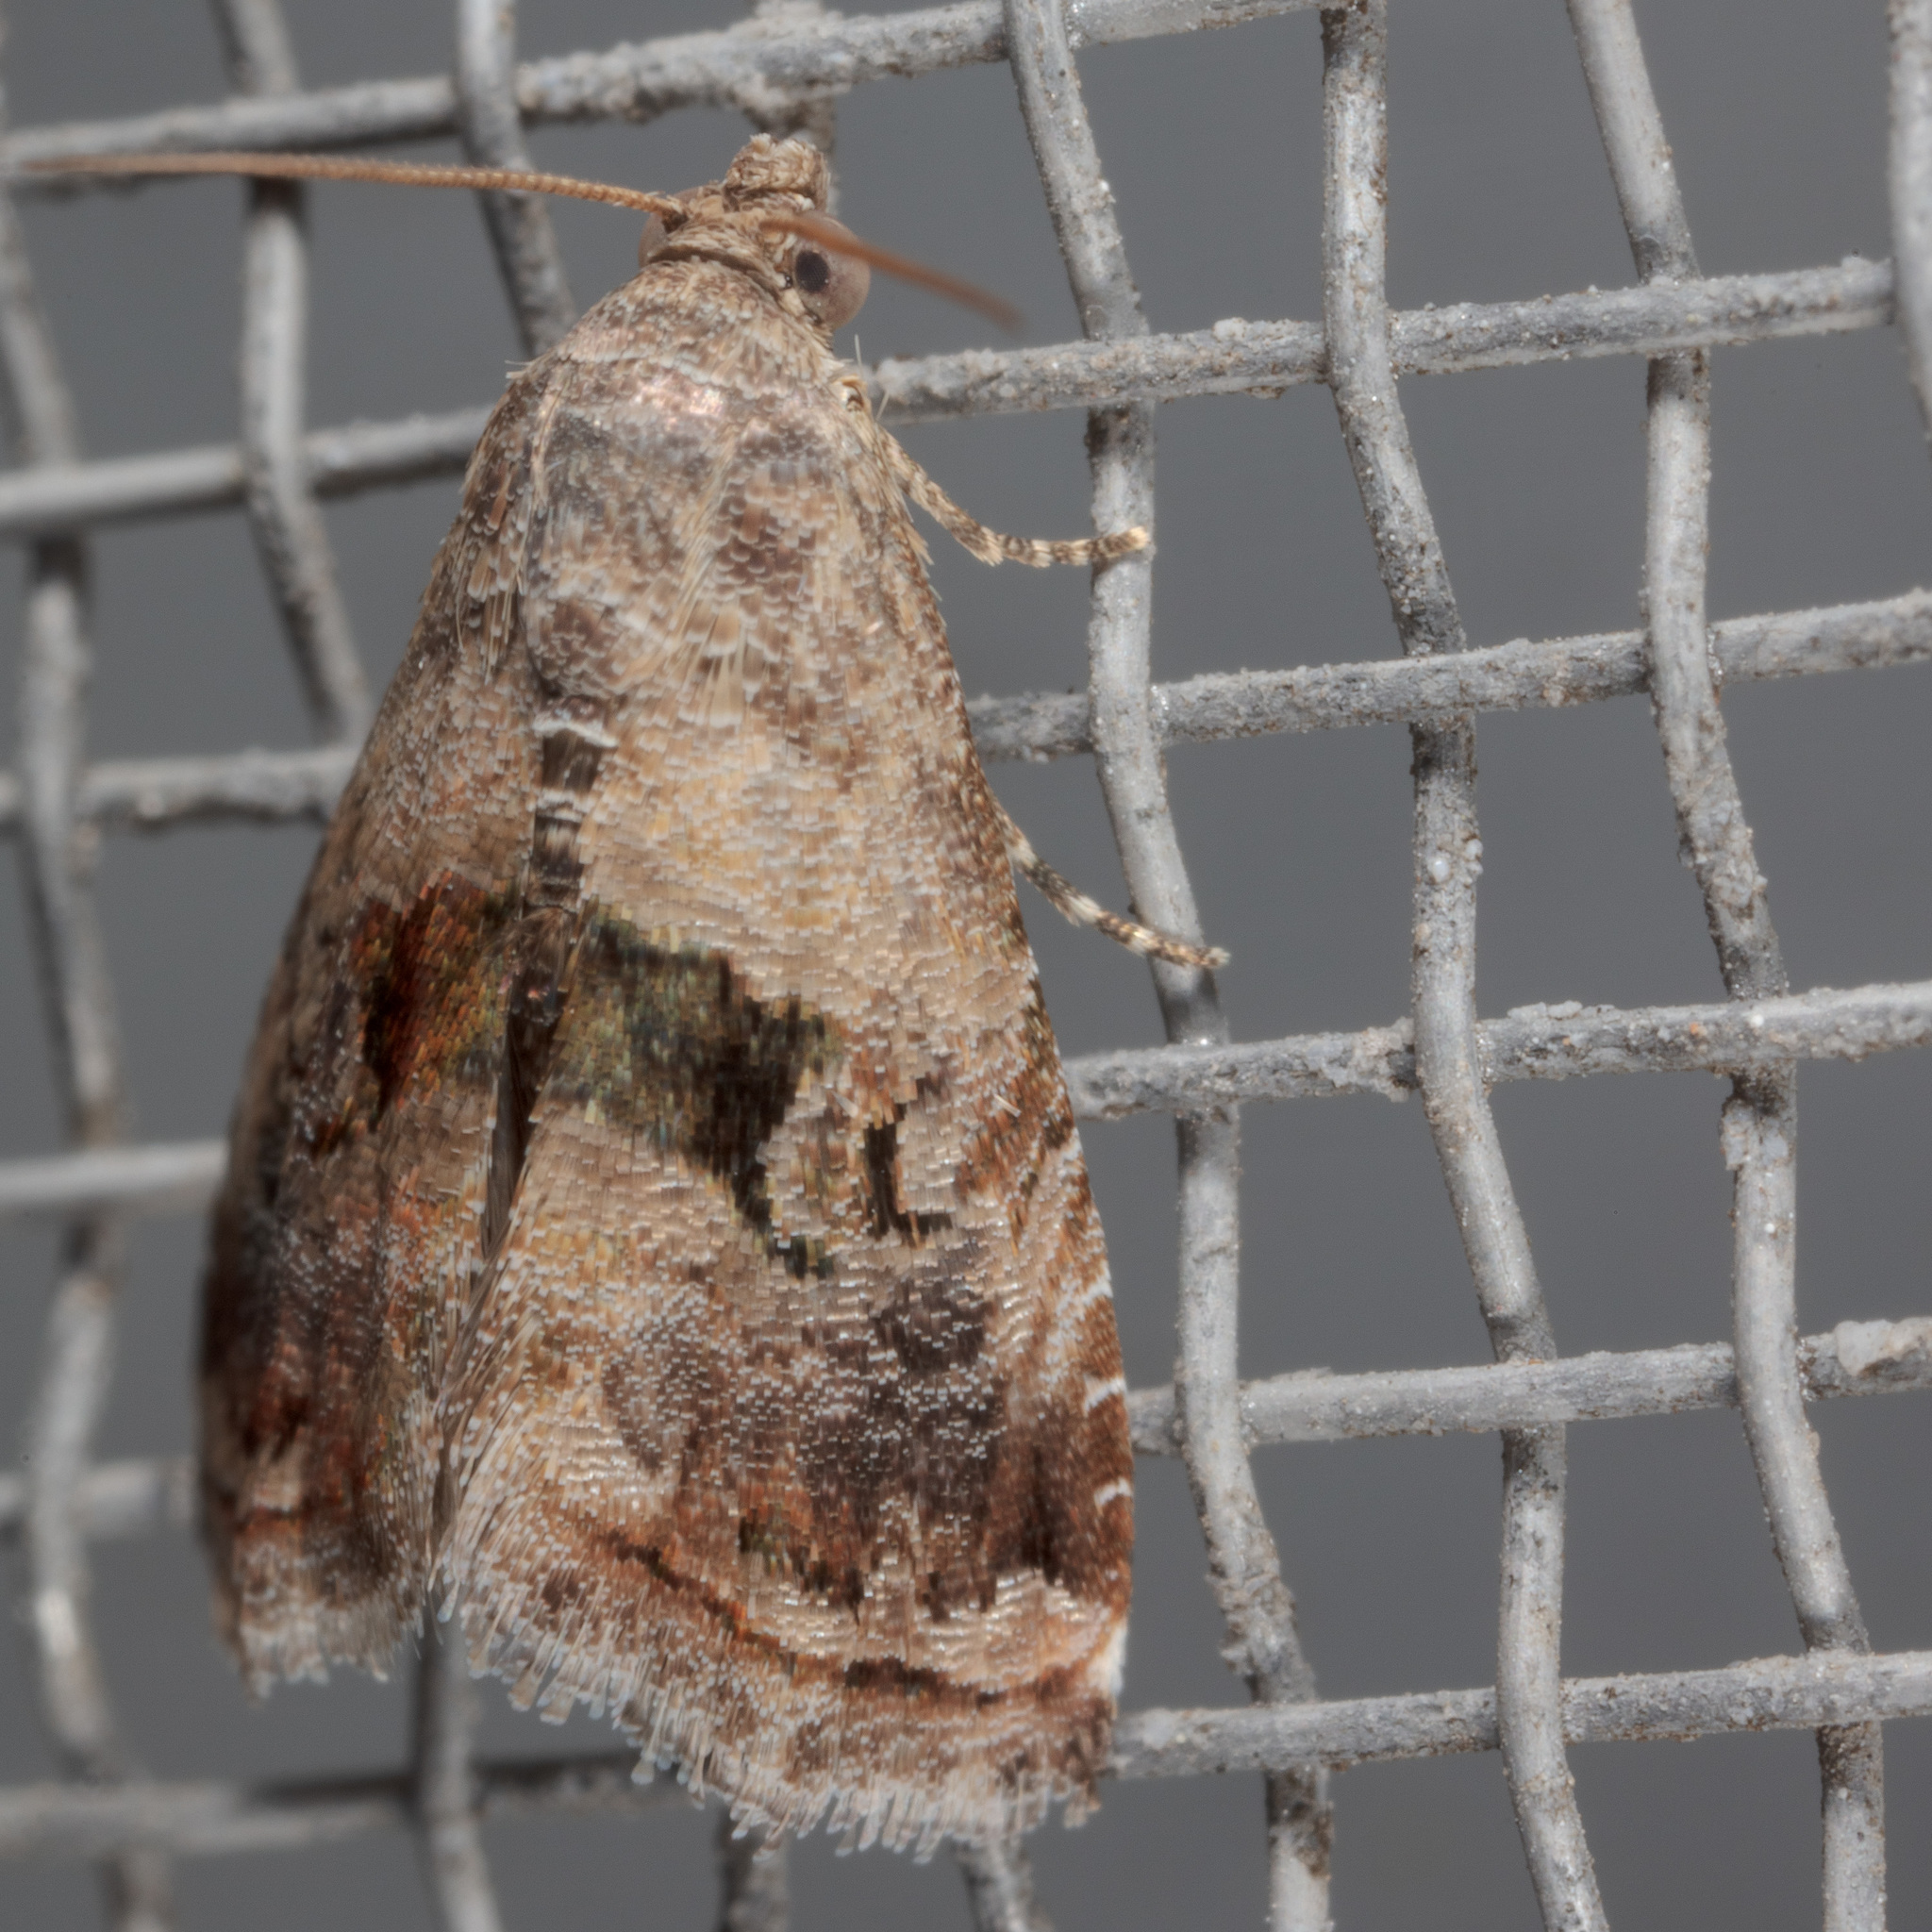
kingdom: Animalia
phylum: Arthropoda
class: Insecta
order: Lepidoptera
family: Noctuidae
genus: Tripudia
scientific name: Tripudia quadrifera
